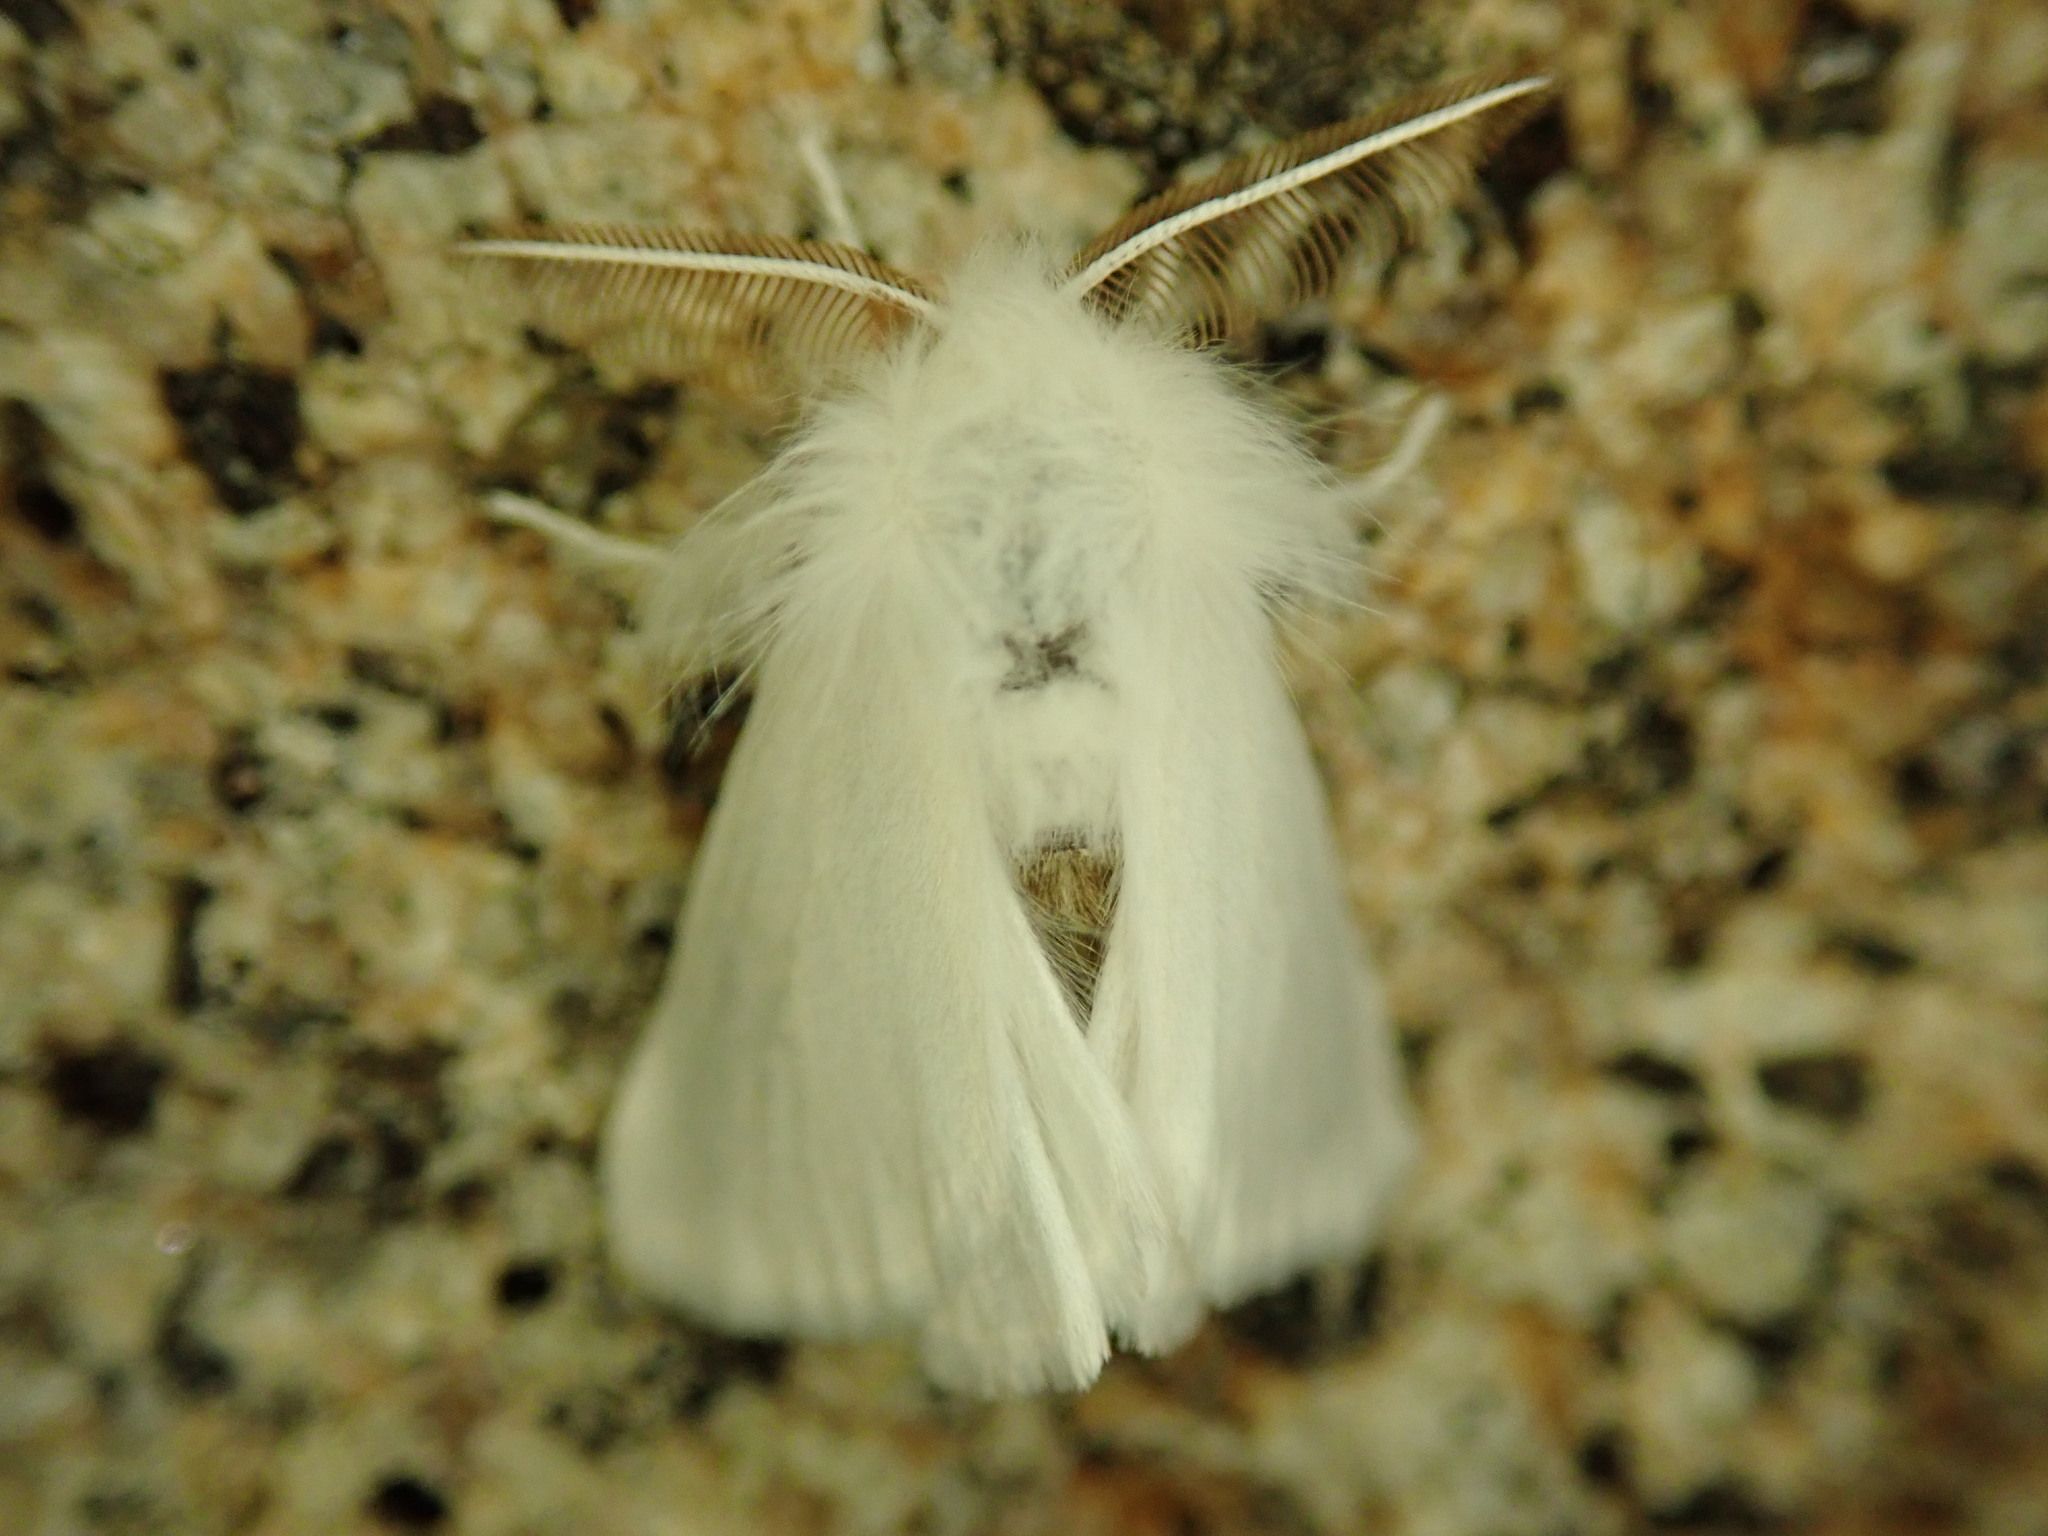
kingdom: Animalia
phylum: Arthropoda
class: Insecta
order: Lepidoptera
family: Erebidae
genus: Euproctis
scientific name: Euproctis chrysorrhoea
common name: Brown-tail
